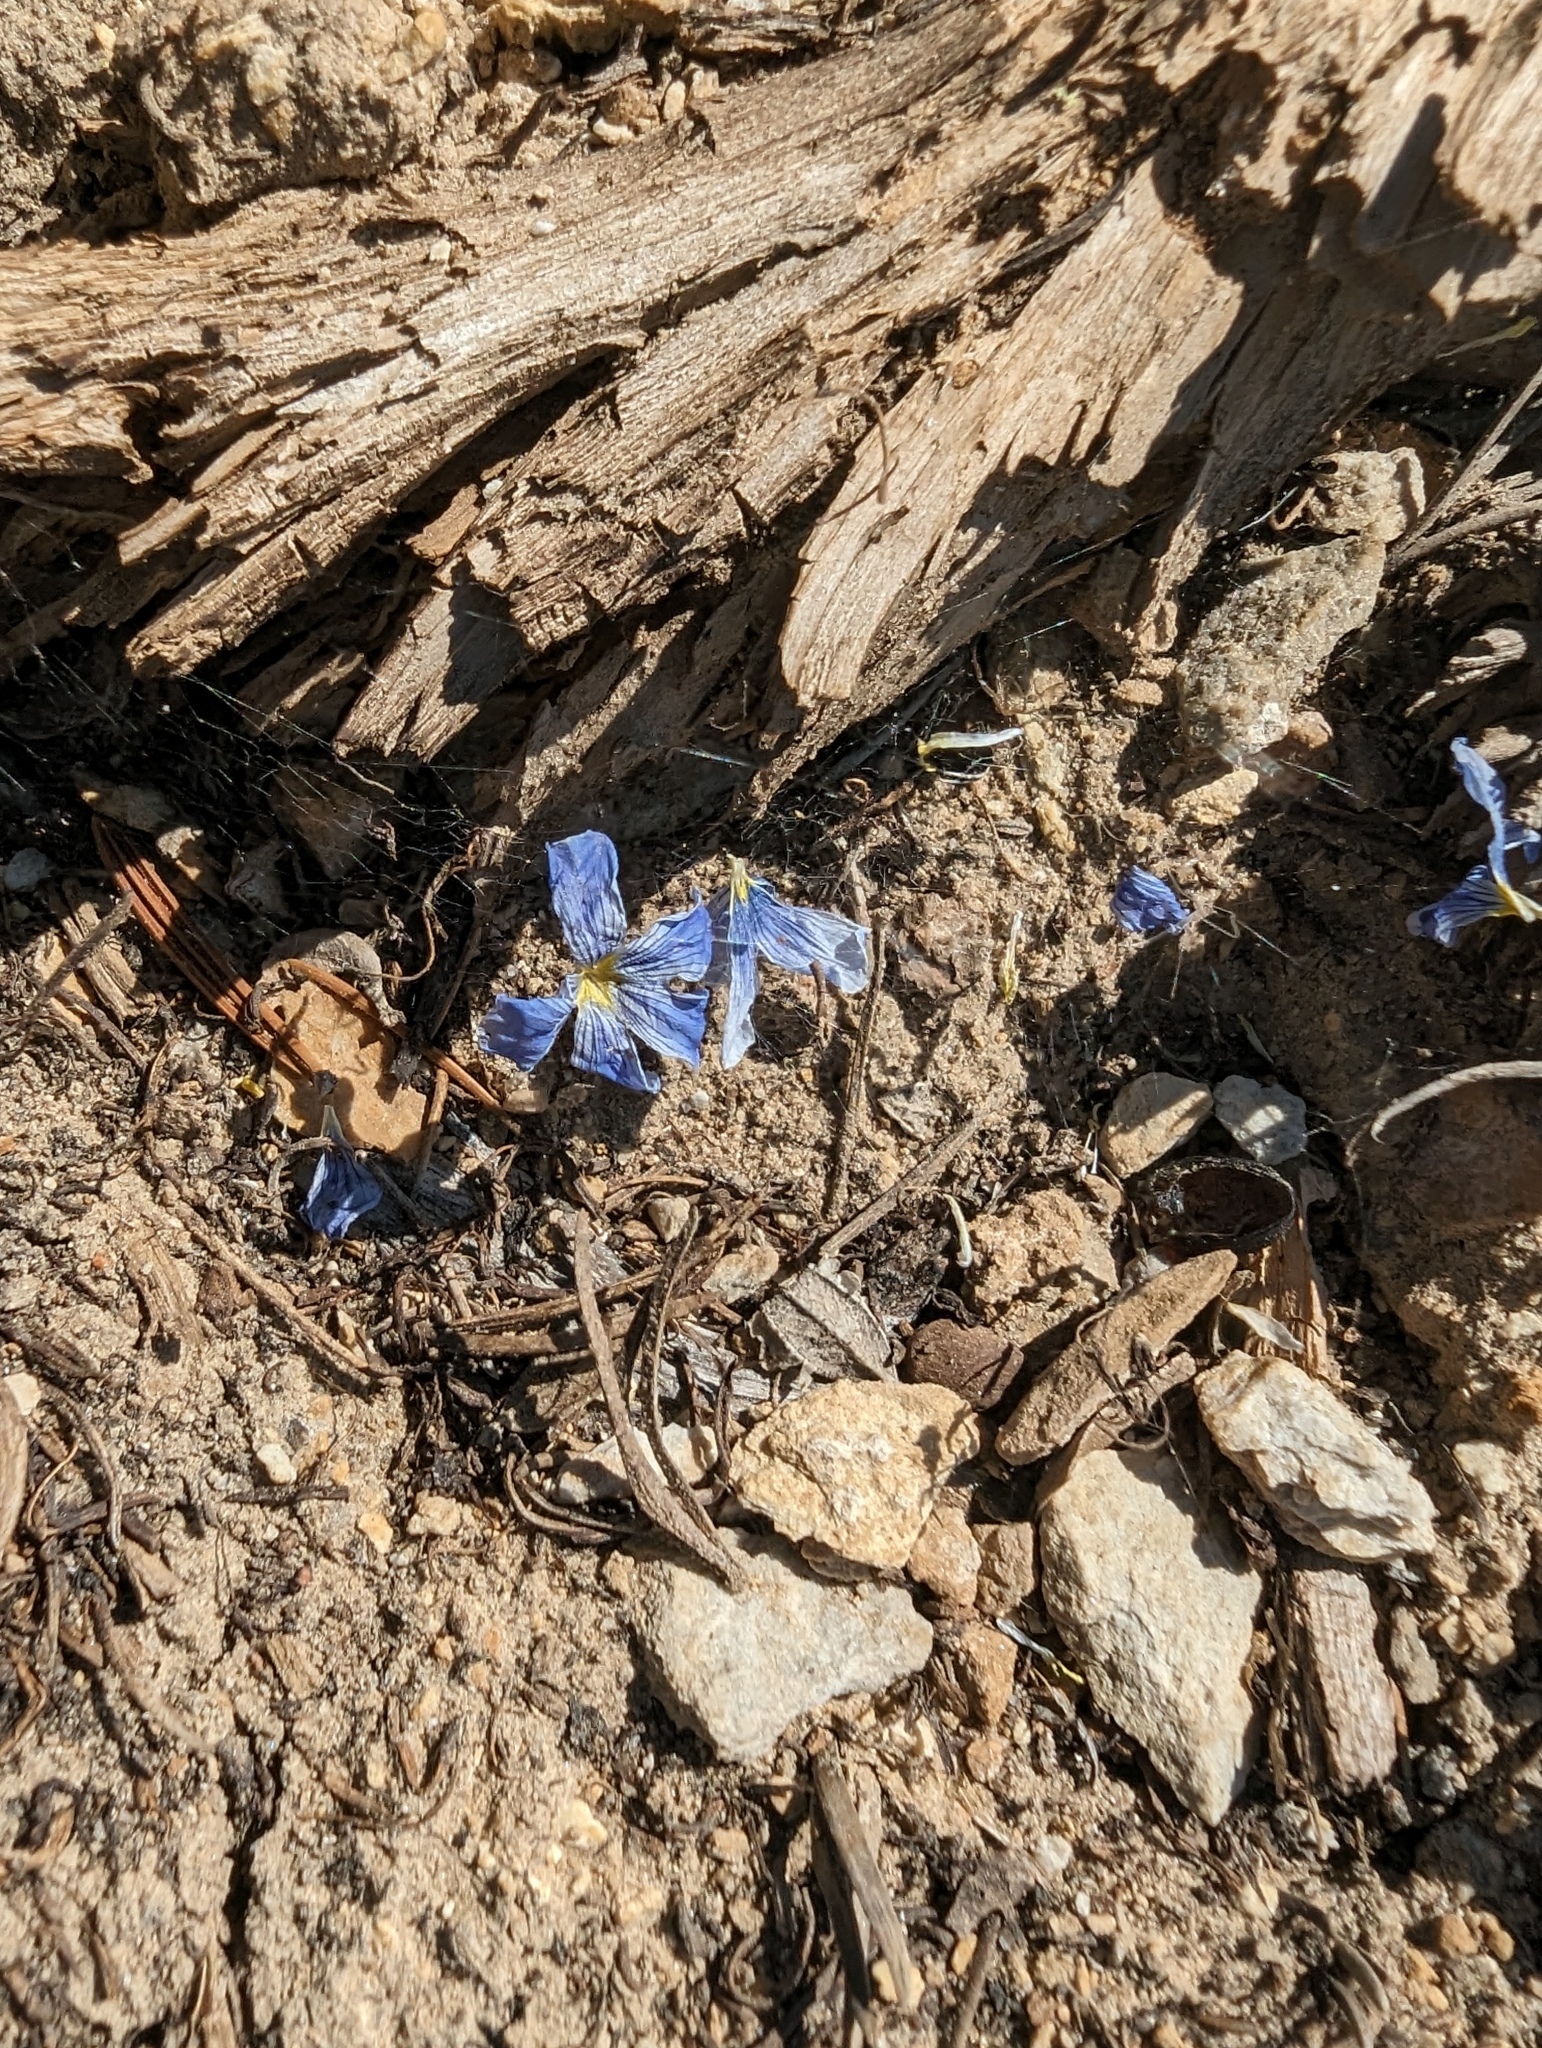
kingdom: Plantae
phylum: Tracheophyta
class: Magnoliopsida
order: Malpighiales
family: Linaceae
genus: Linum
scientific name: Linum lewisii
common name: Prairie flax
